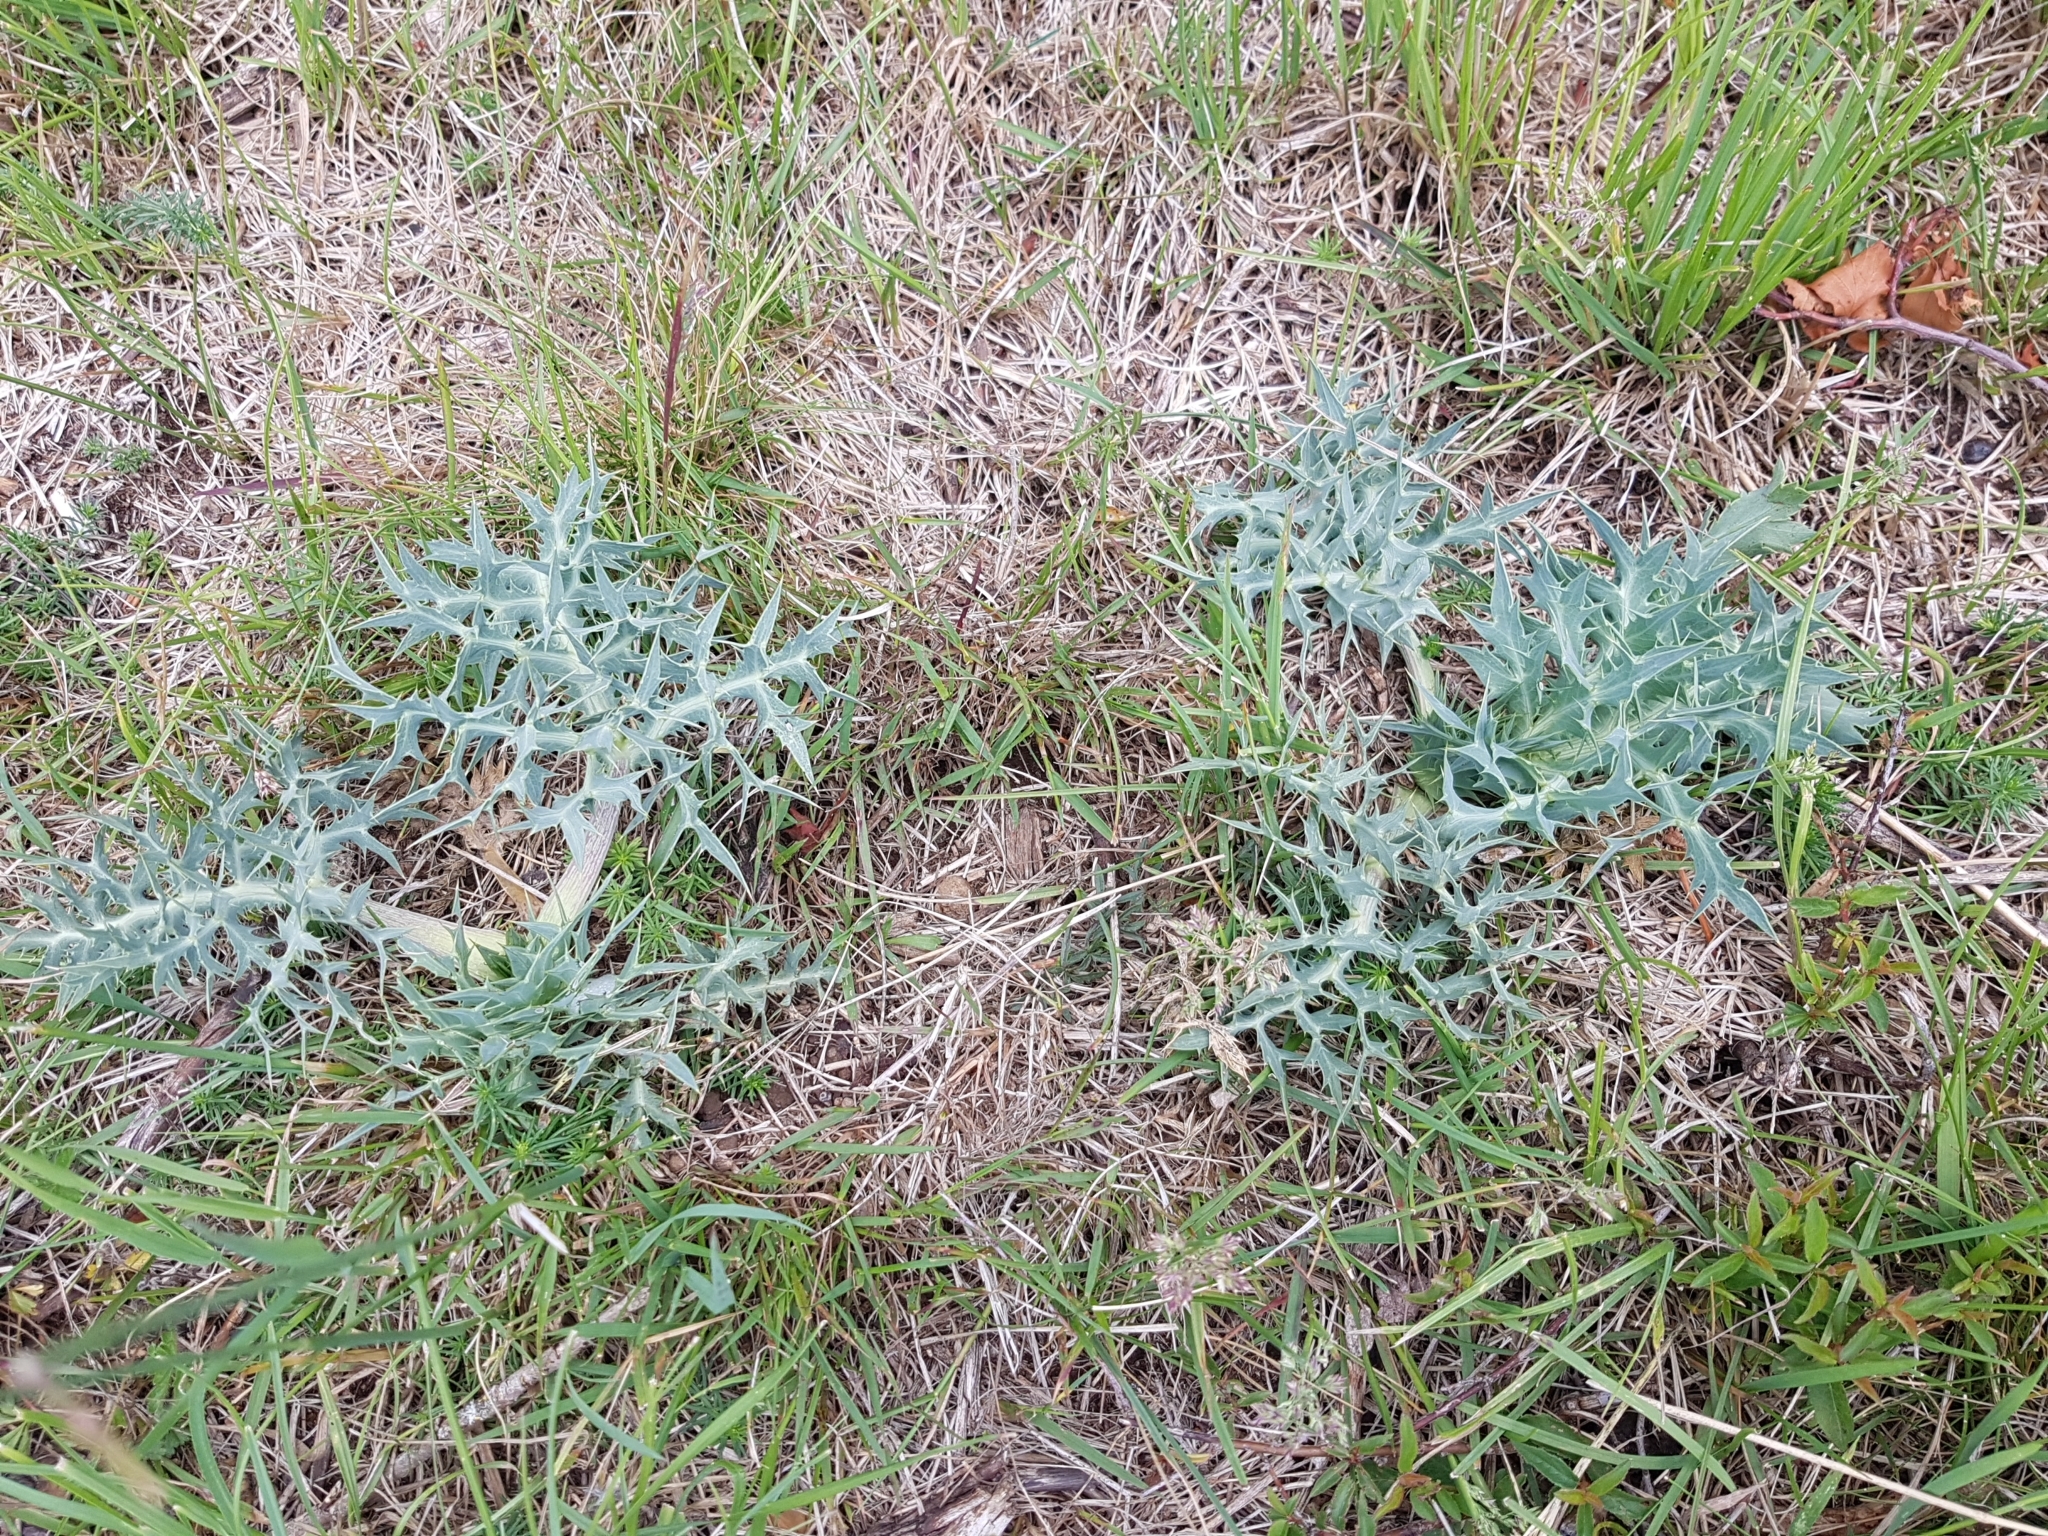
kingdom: Plantae
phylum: Tracheophyta
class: Magnoliopsida
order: Apiales
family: Apiaceae
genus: Eryngium
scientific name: Eryngium campestre
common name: Field eryngo
